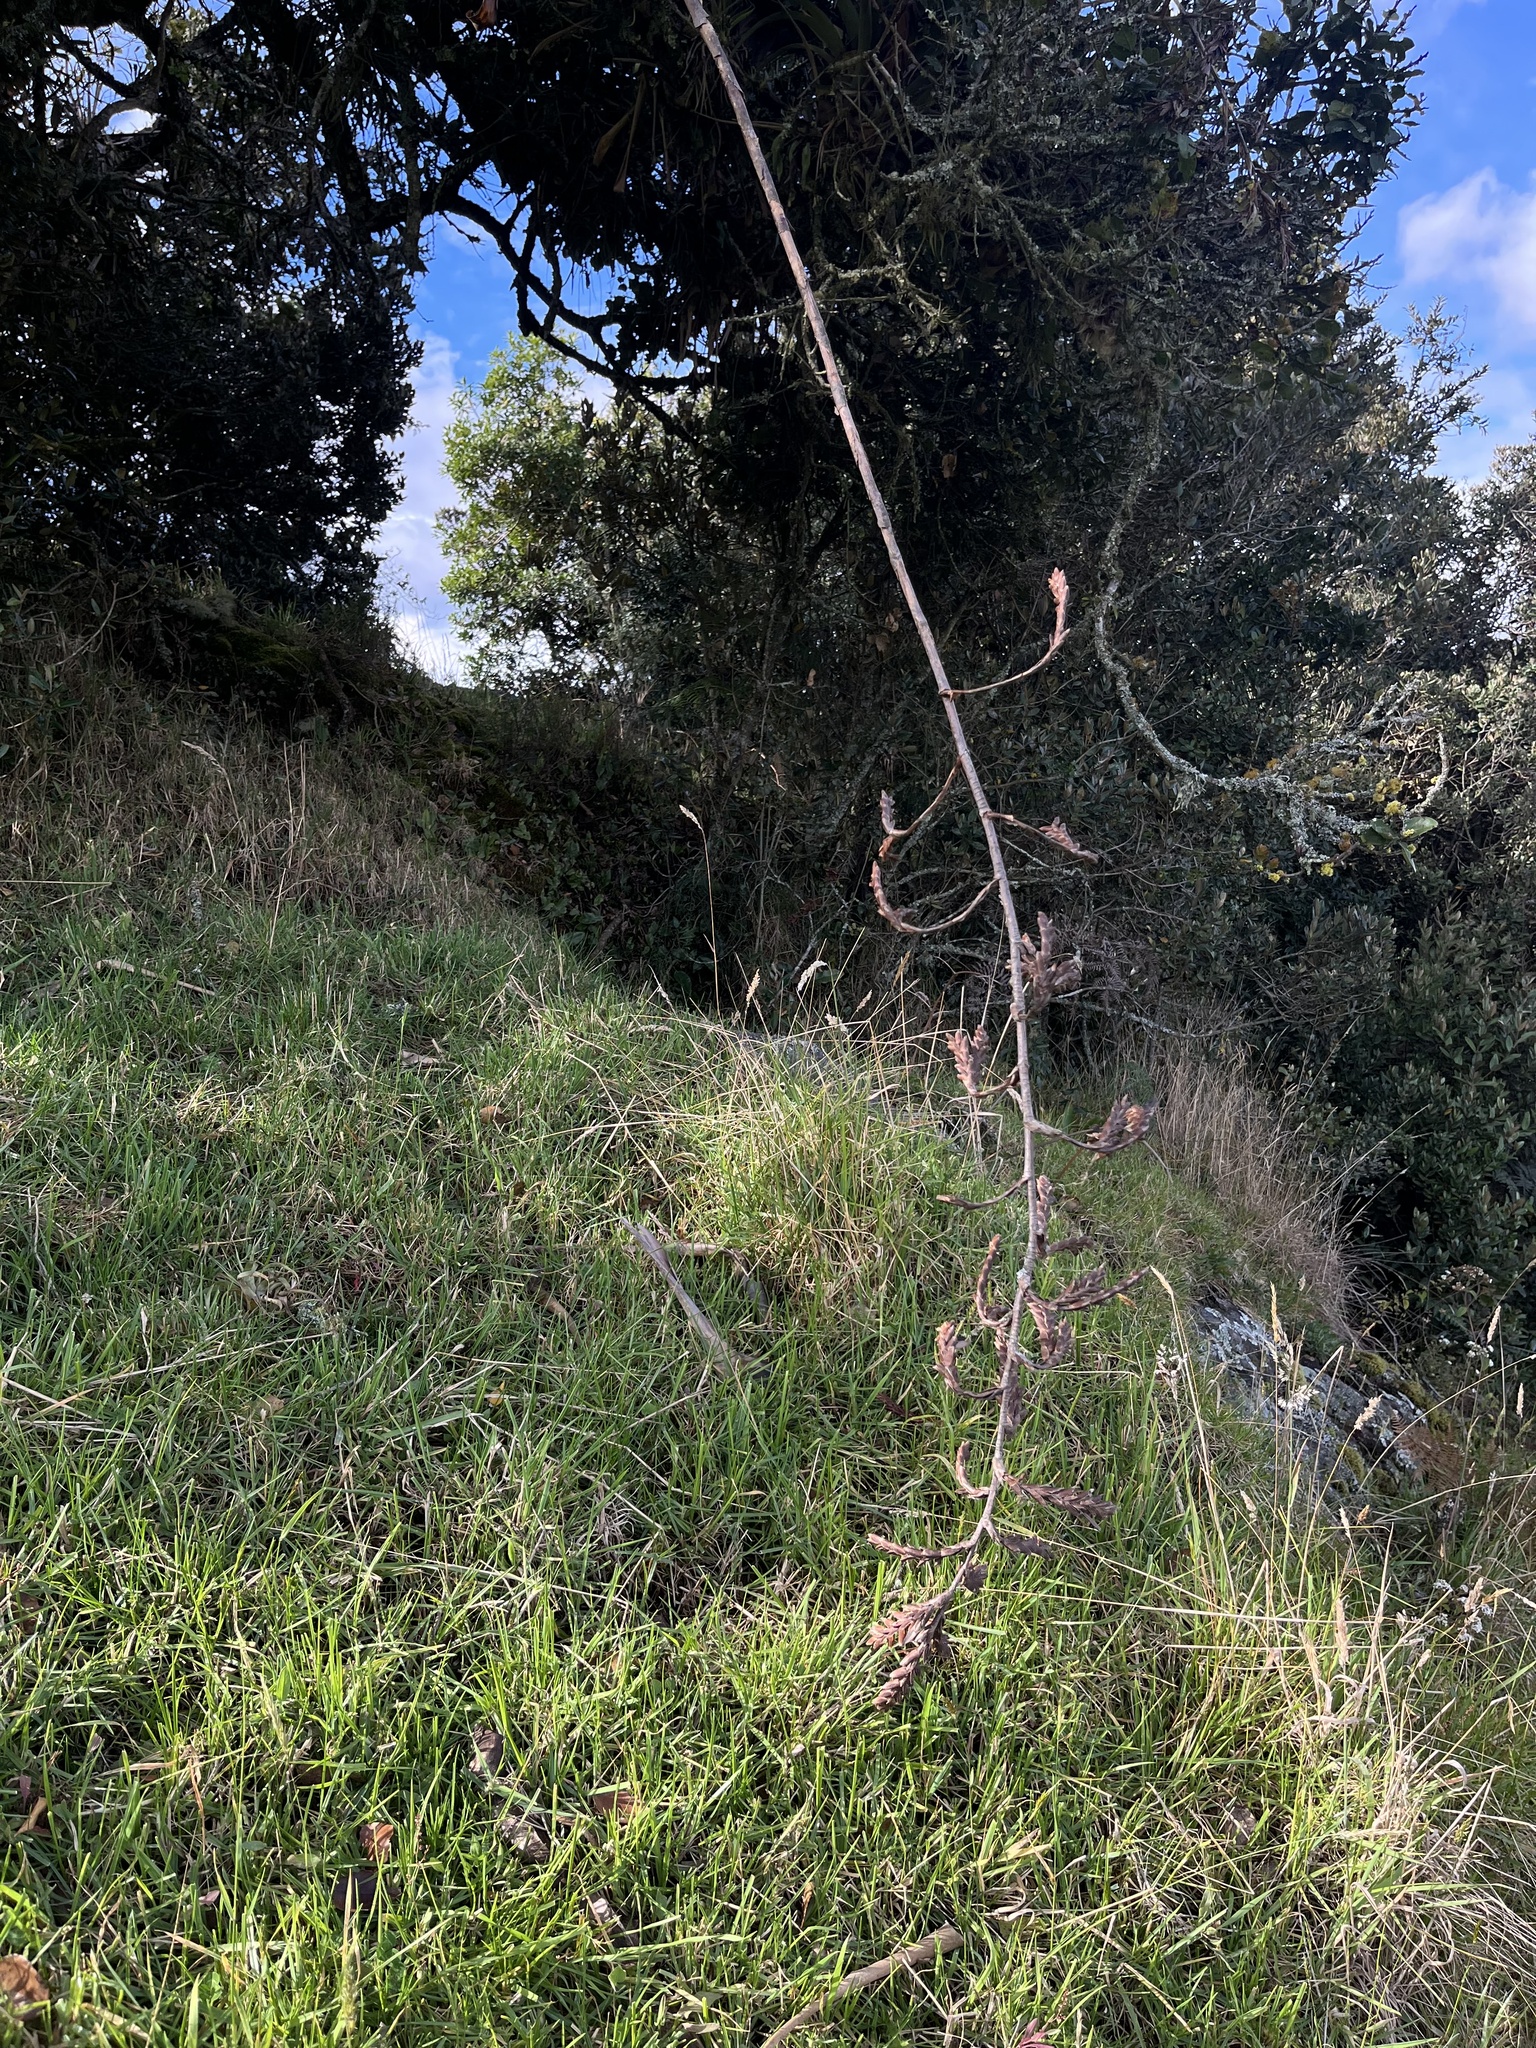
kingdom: Plantae
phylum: Tracheophyta
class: Liliopsida
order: Poales
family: Bromeliaceae
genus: Tillandsia
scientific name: Tillandsia denudata
